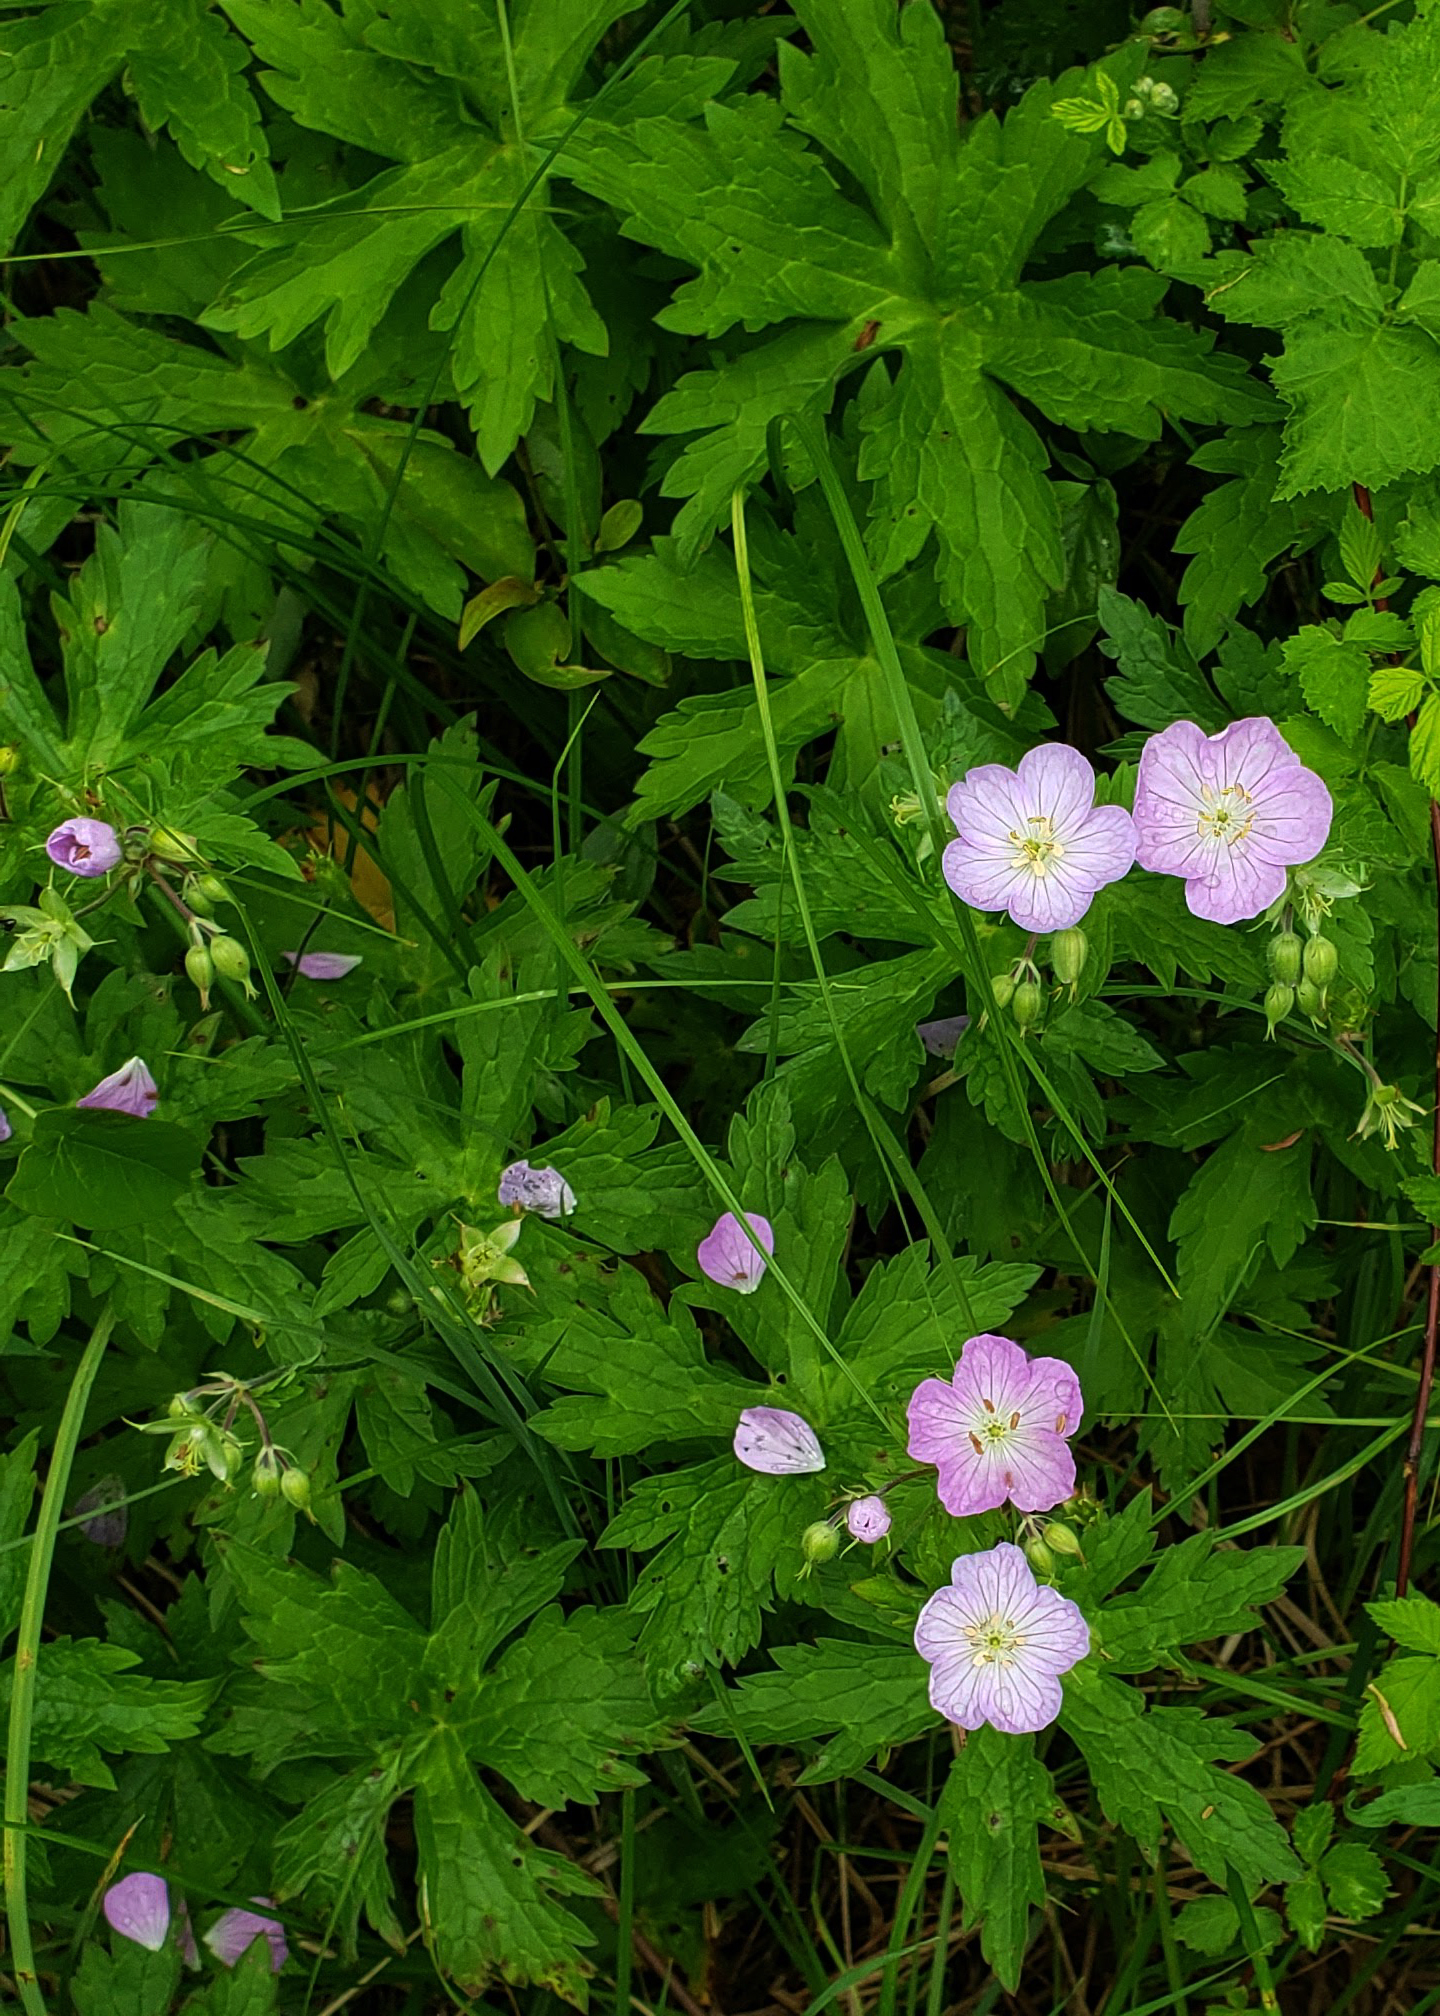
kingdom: Plantae
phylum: Tracheophyta
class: Magnoliopsida
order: Geraniales
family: Geraniaceae
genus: Geranium
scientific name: Geranium maculatum
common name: Spotted geranium
